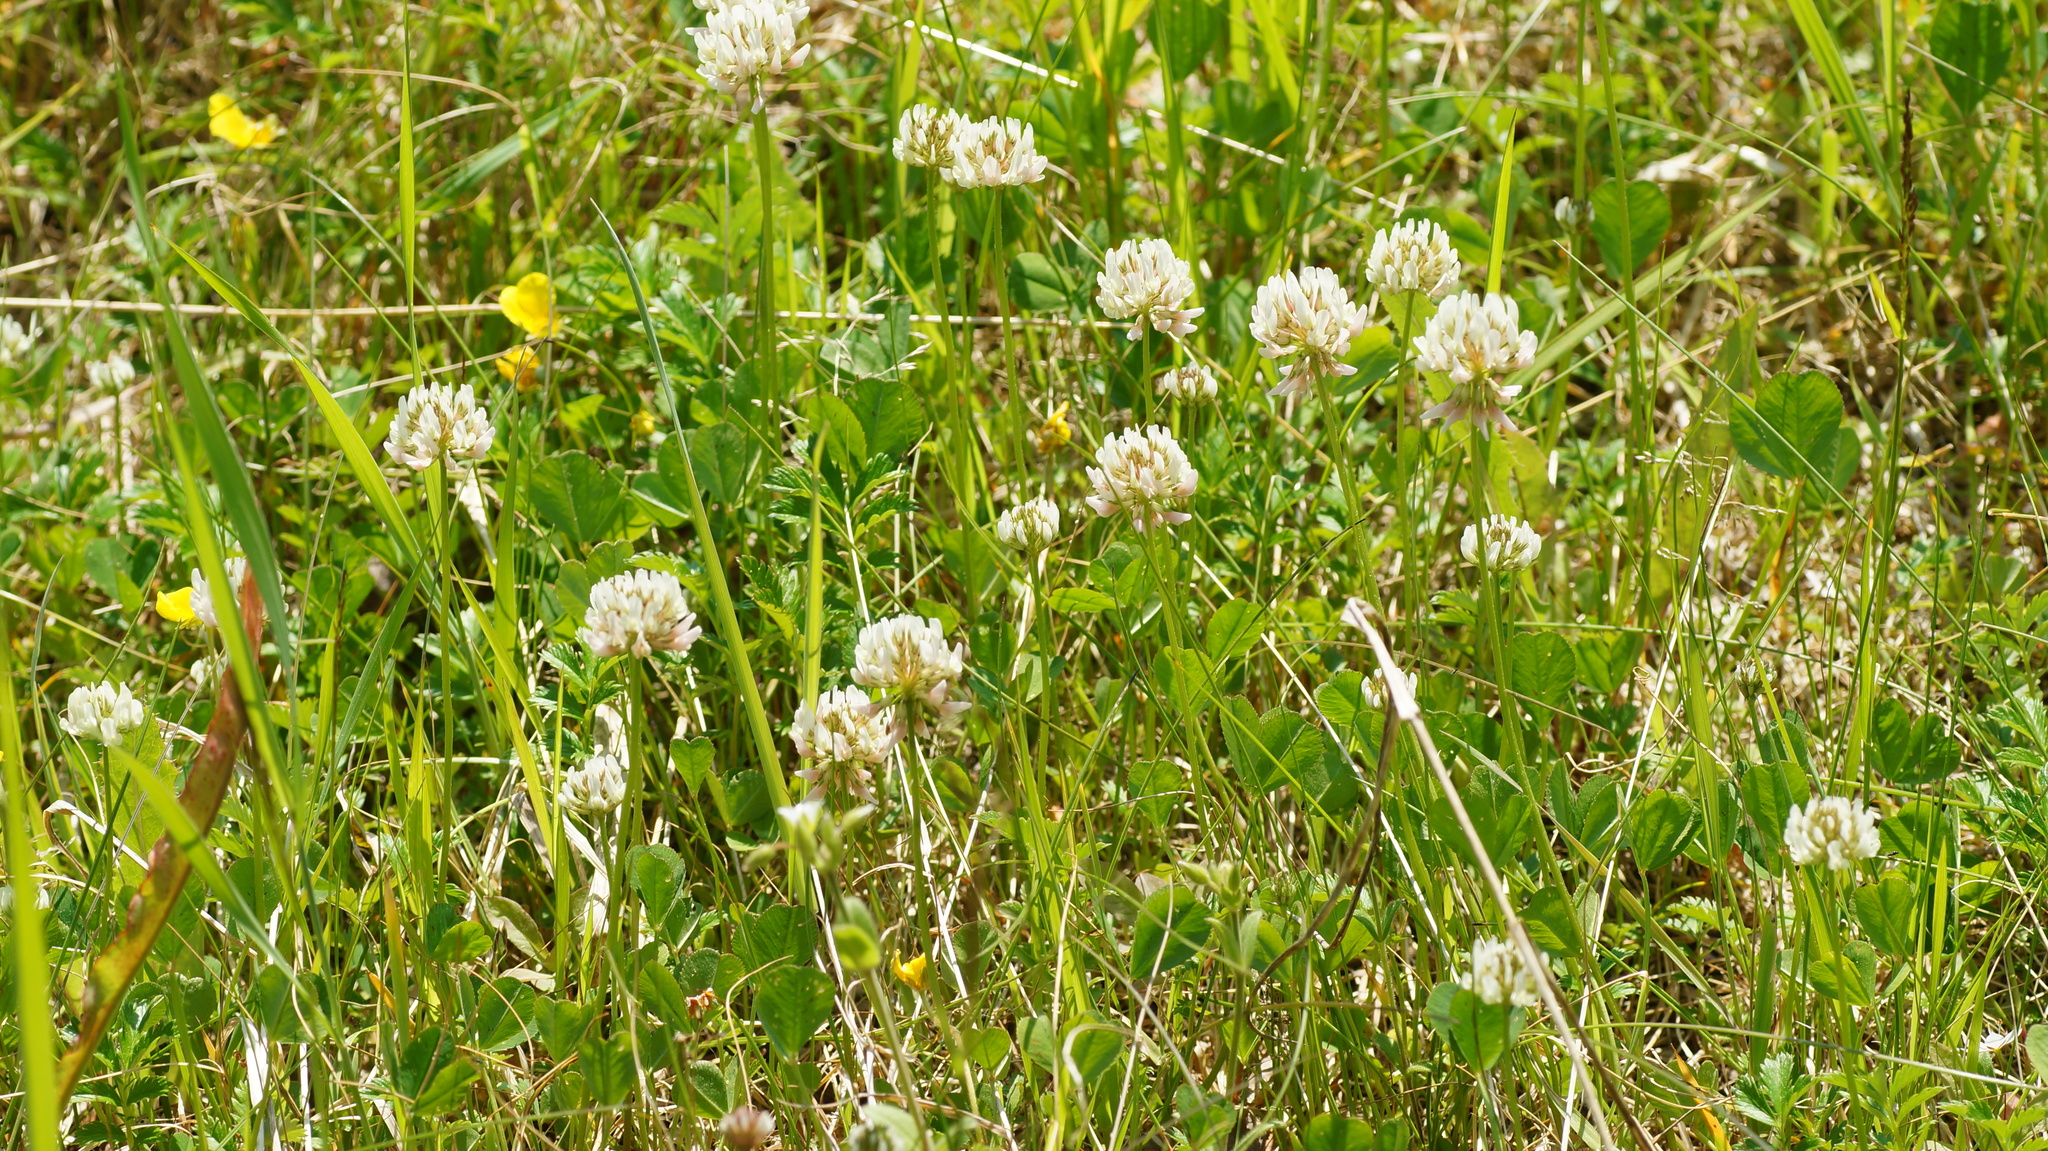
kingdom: Plantae
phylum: Tracheophyta
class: Magnoliopsida
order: Fabales
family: Fabaceae
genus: Trifolium
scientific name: Trifolium repens
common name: White clover
